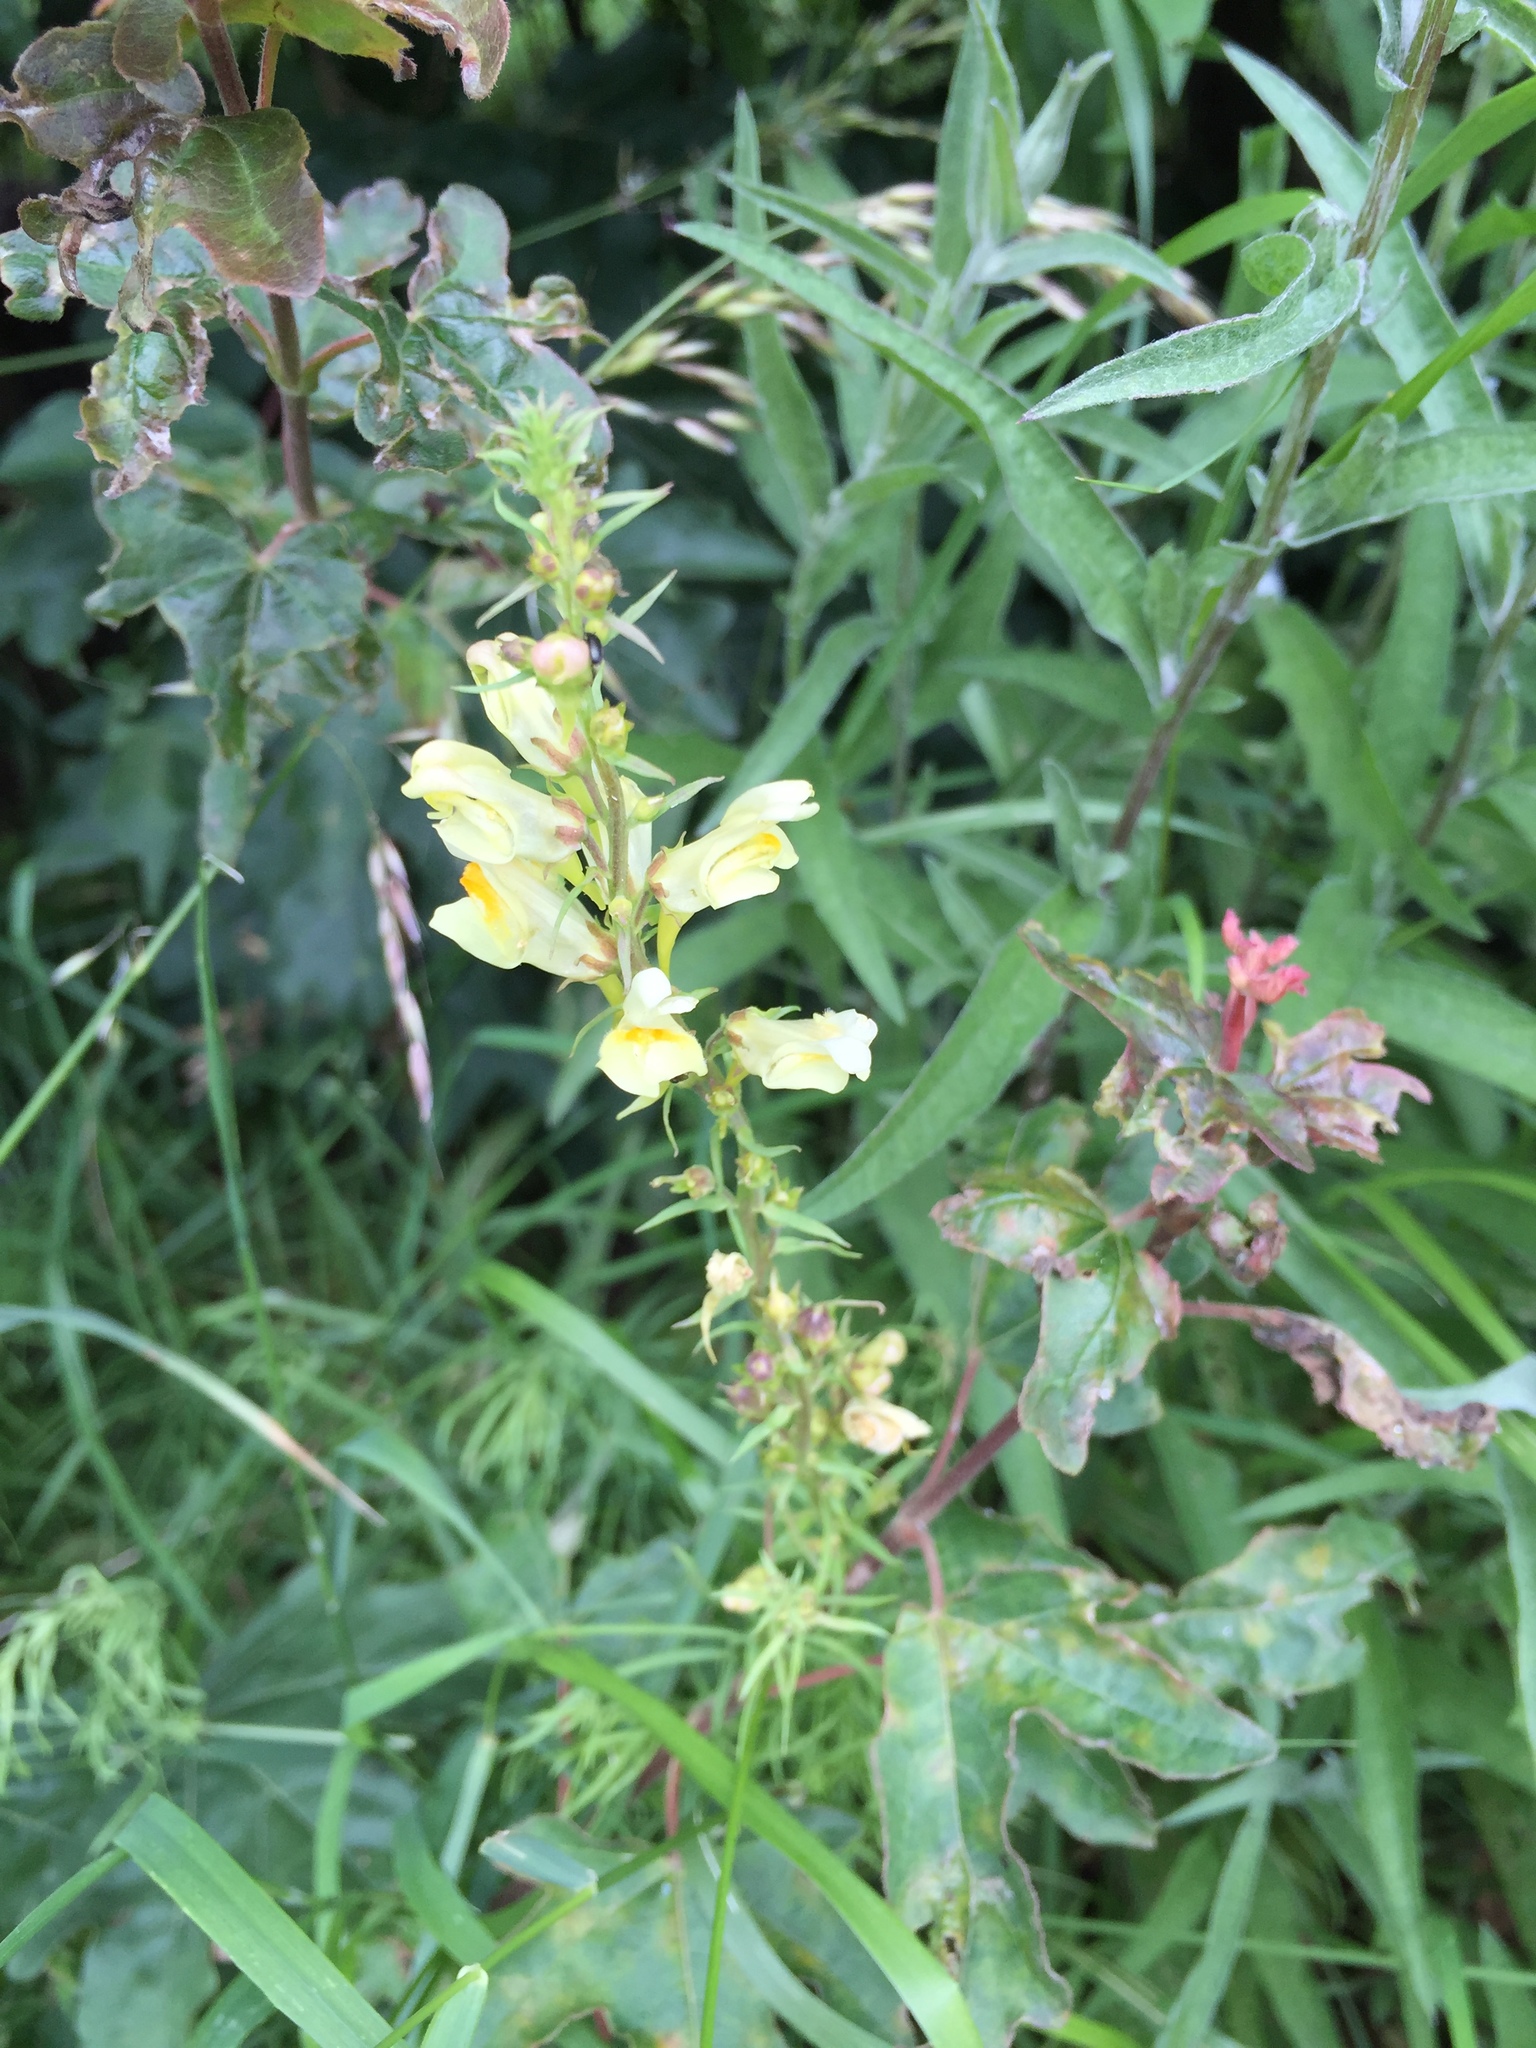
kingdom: Plantae
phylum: Tracheophyta
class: Magnoliopsida
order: Lamiales
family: Plantaginaceae
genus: Linaria
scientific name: Linaria vulgaris
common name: Butter and eggs
